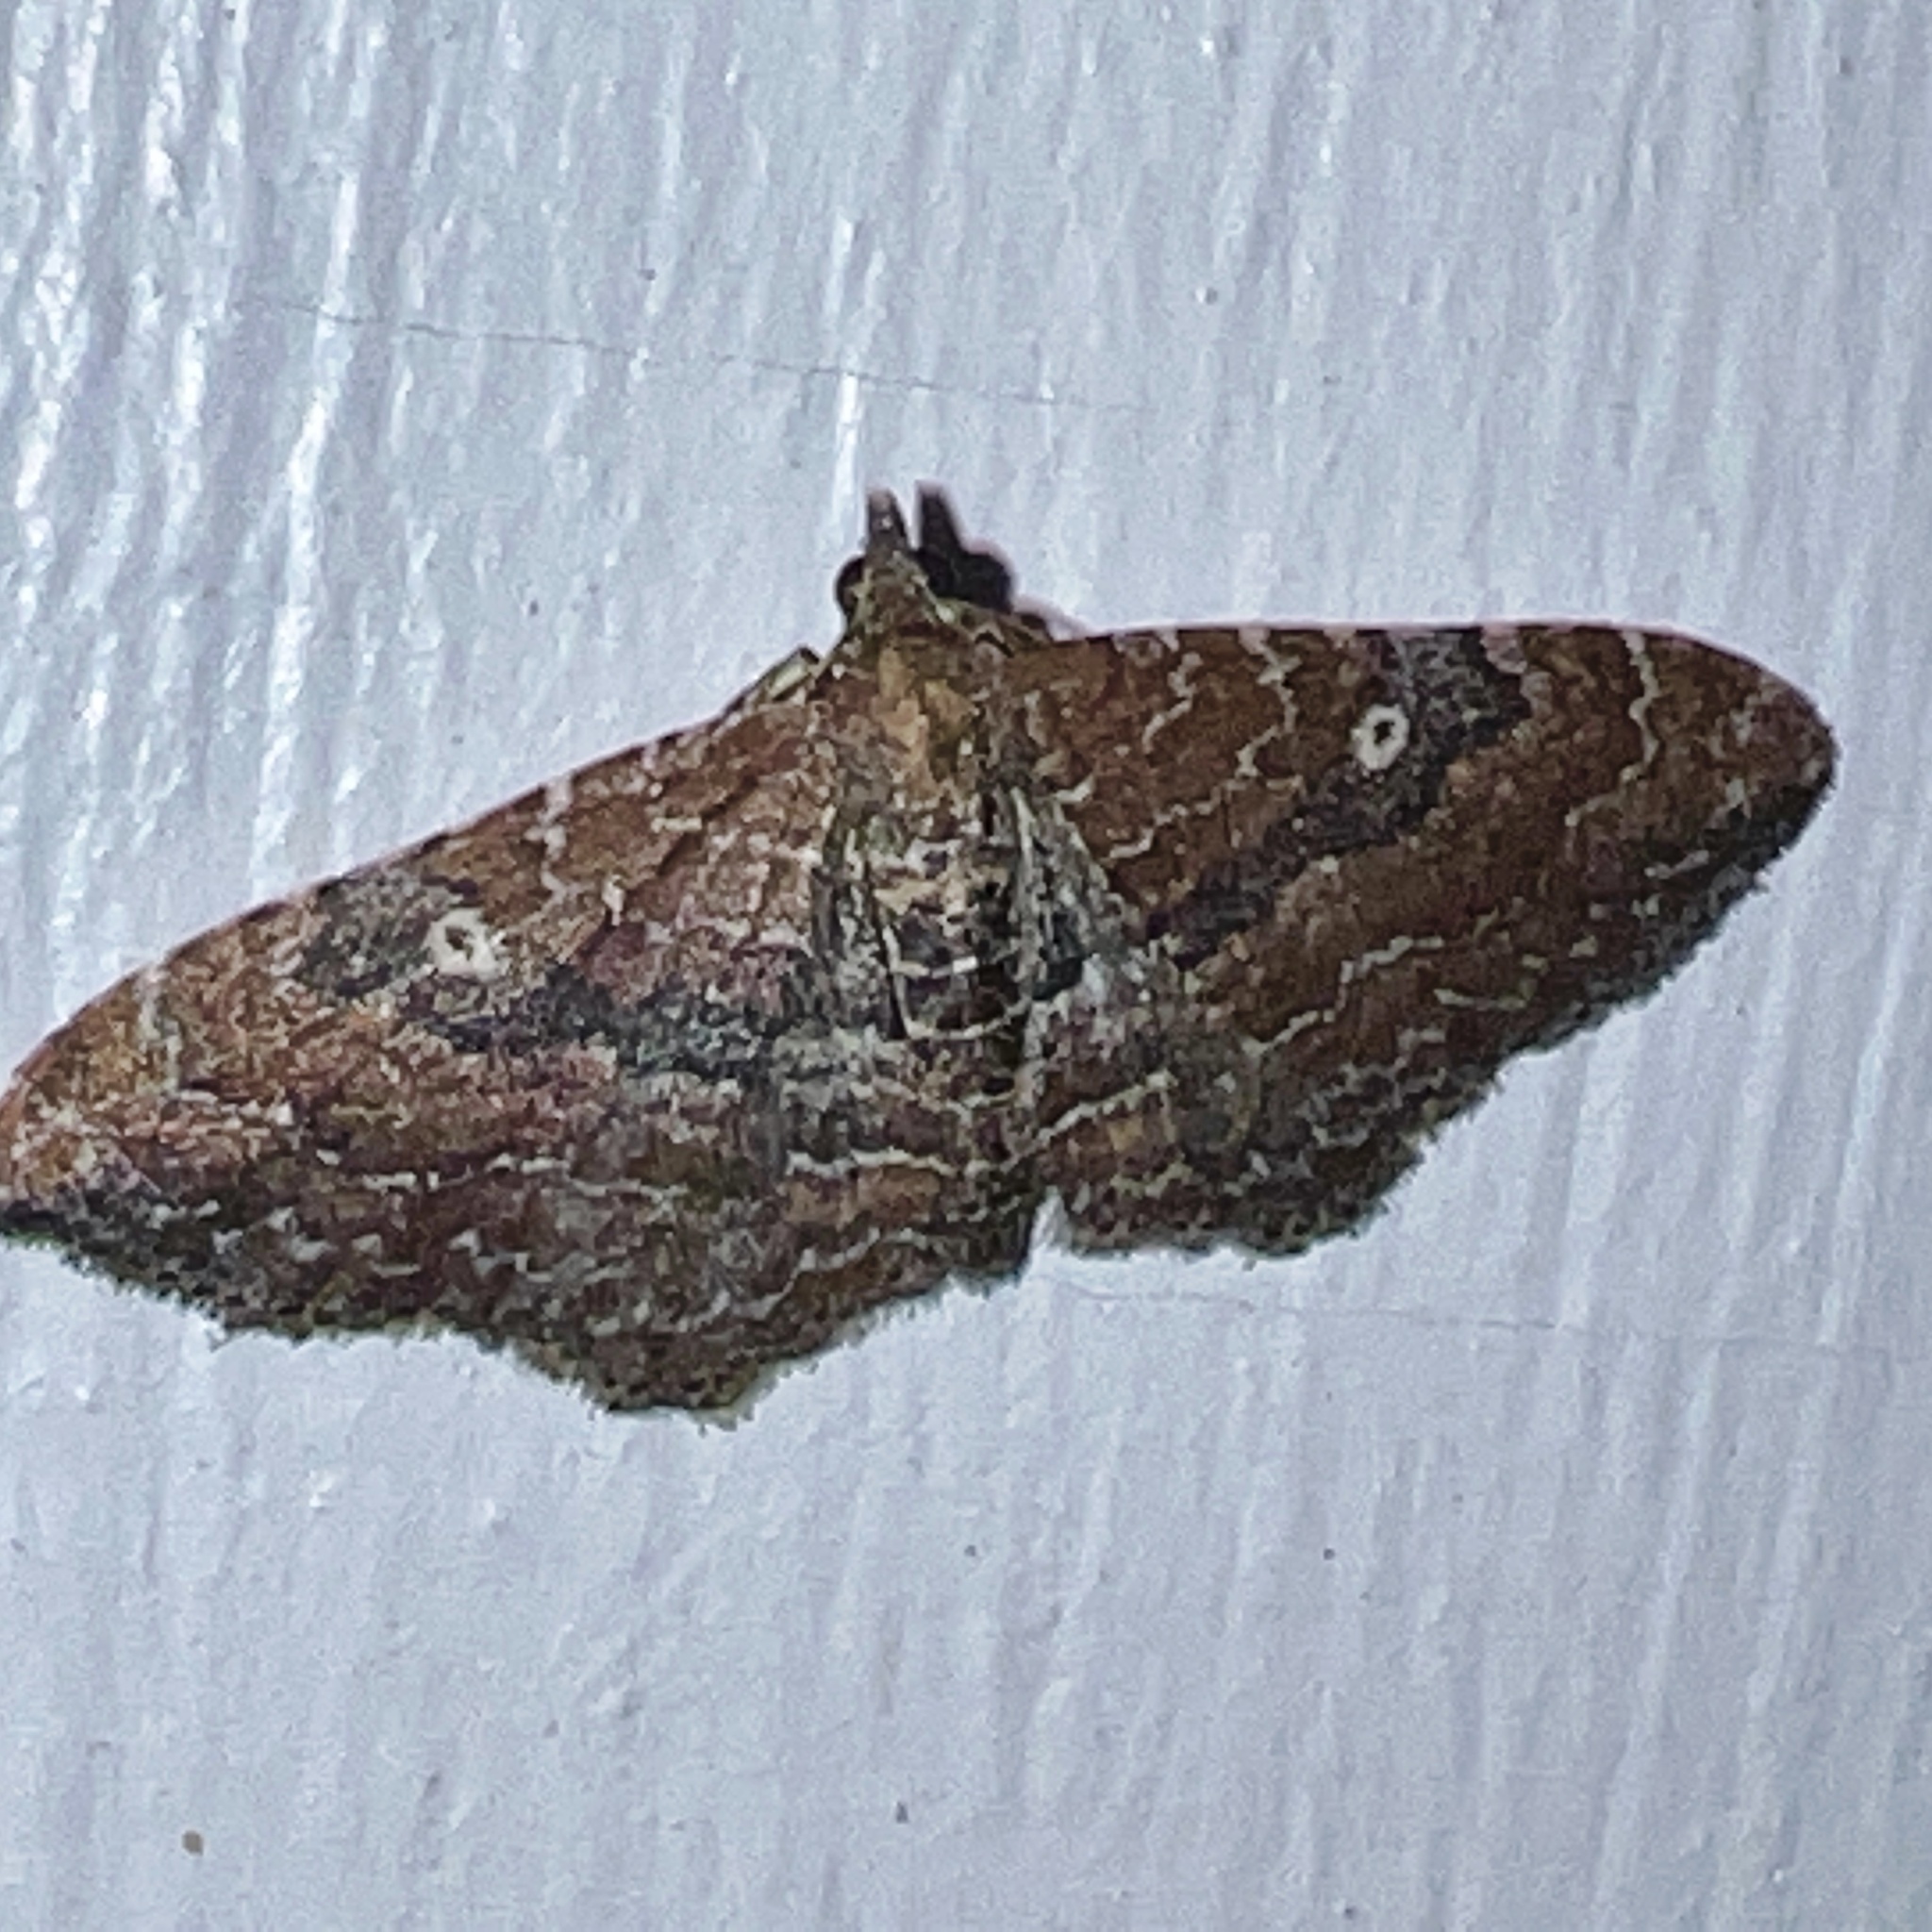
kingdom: Animalia
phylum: Arthropoda
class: Insecta
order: Lepidoptera
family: Geometridae
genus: Orthonama
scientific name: Orthonama obstipata
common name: The gem
